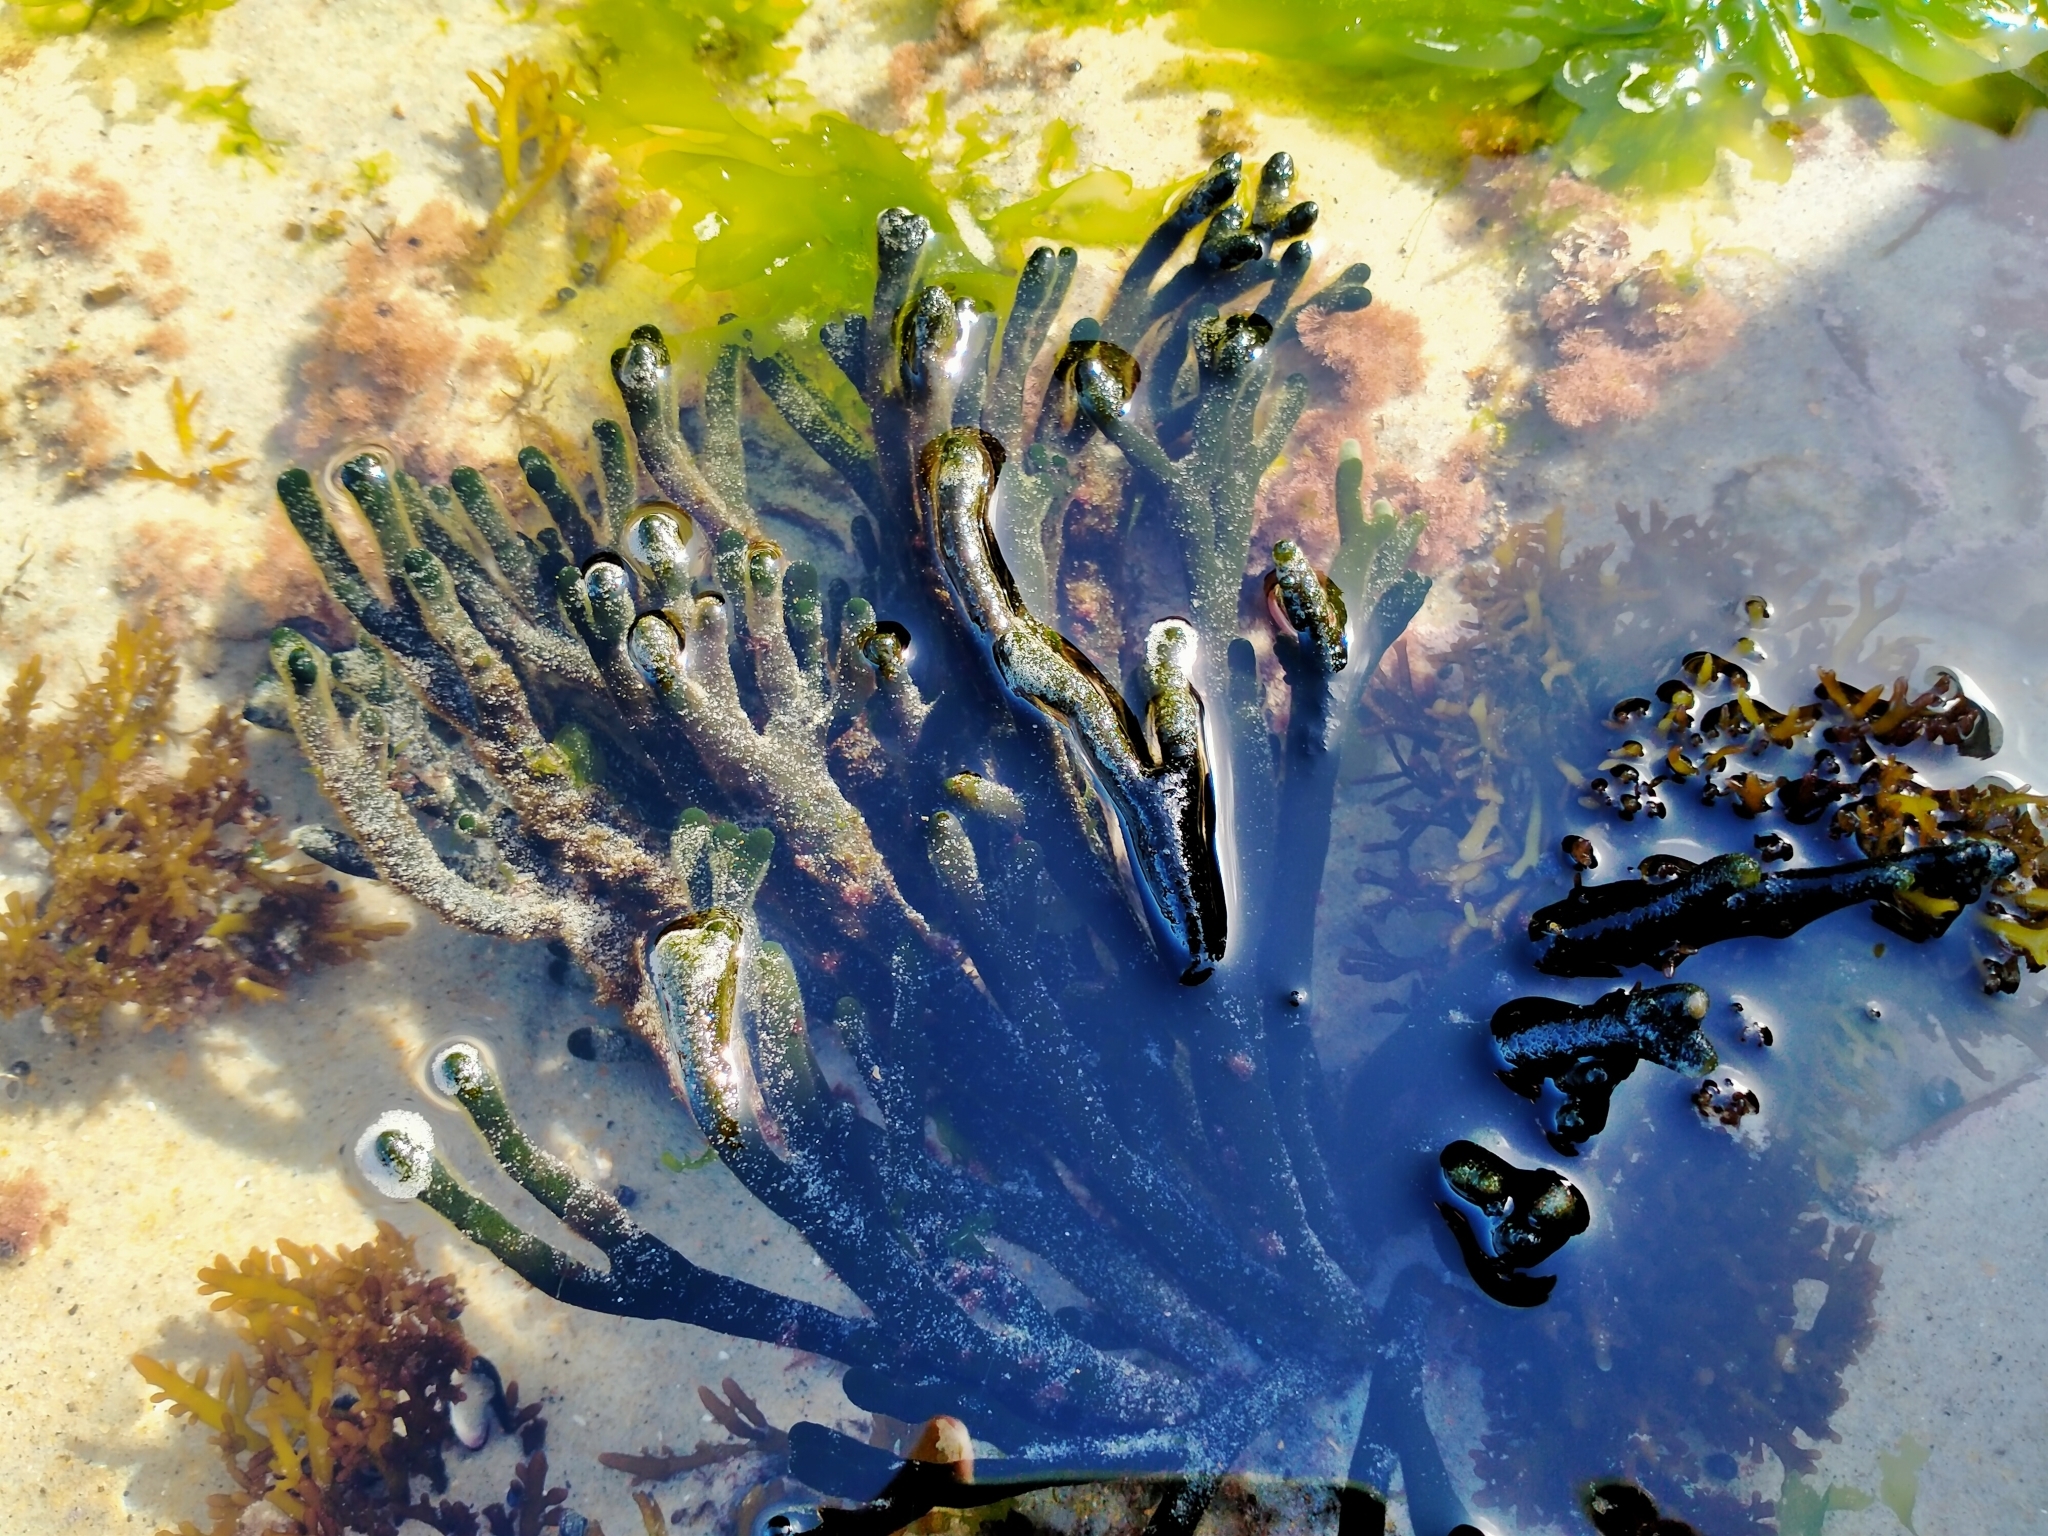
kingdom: Plantae
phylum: Chlorophyta
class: Ulvophyceae
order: Bryopsidales
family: Codiaceae
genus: Codium
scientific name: Codium fragile
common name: Dead man's fingers
